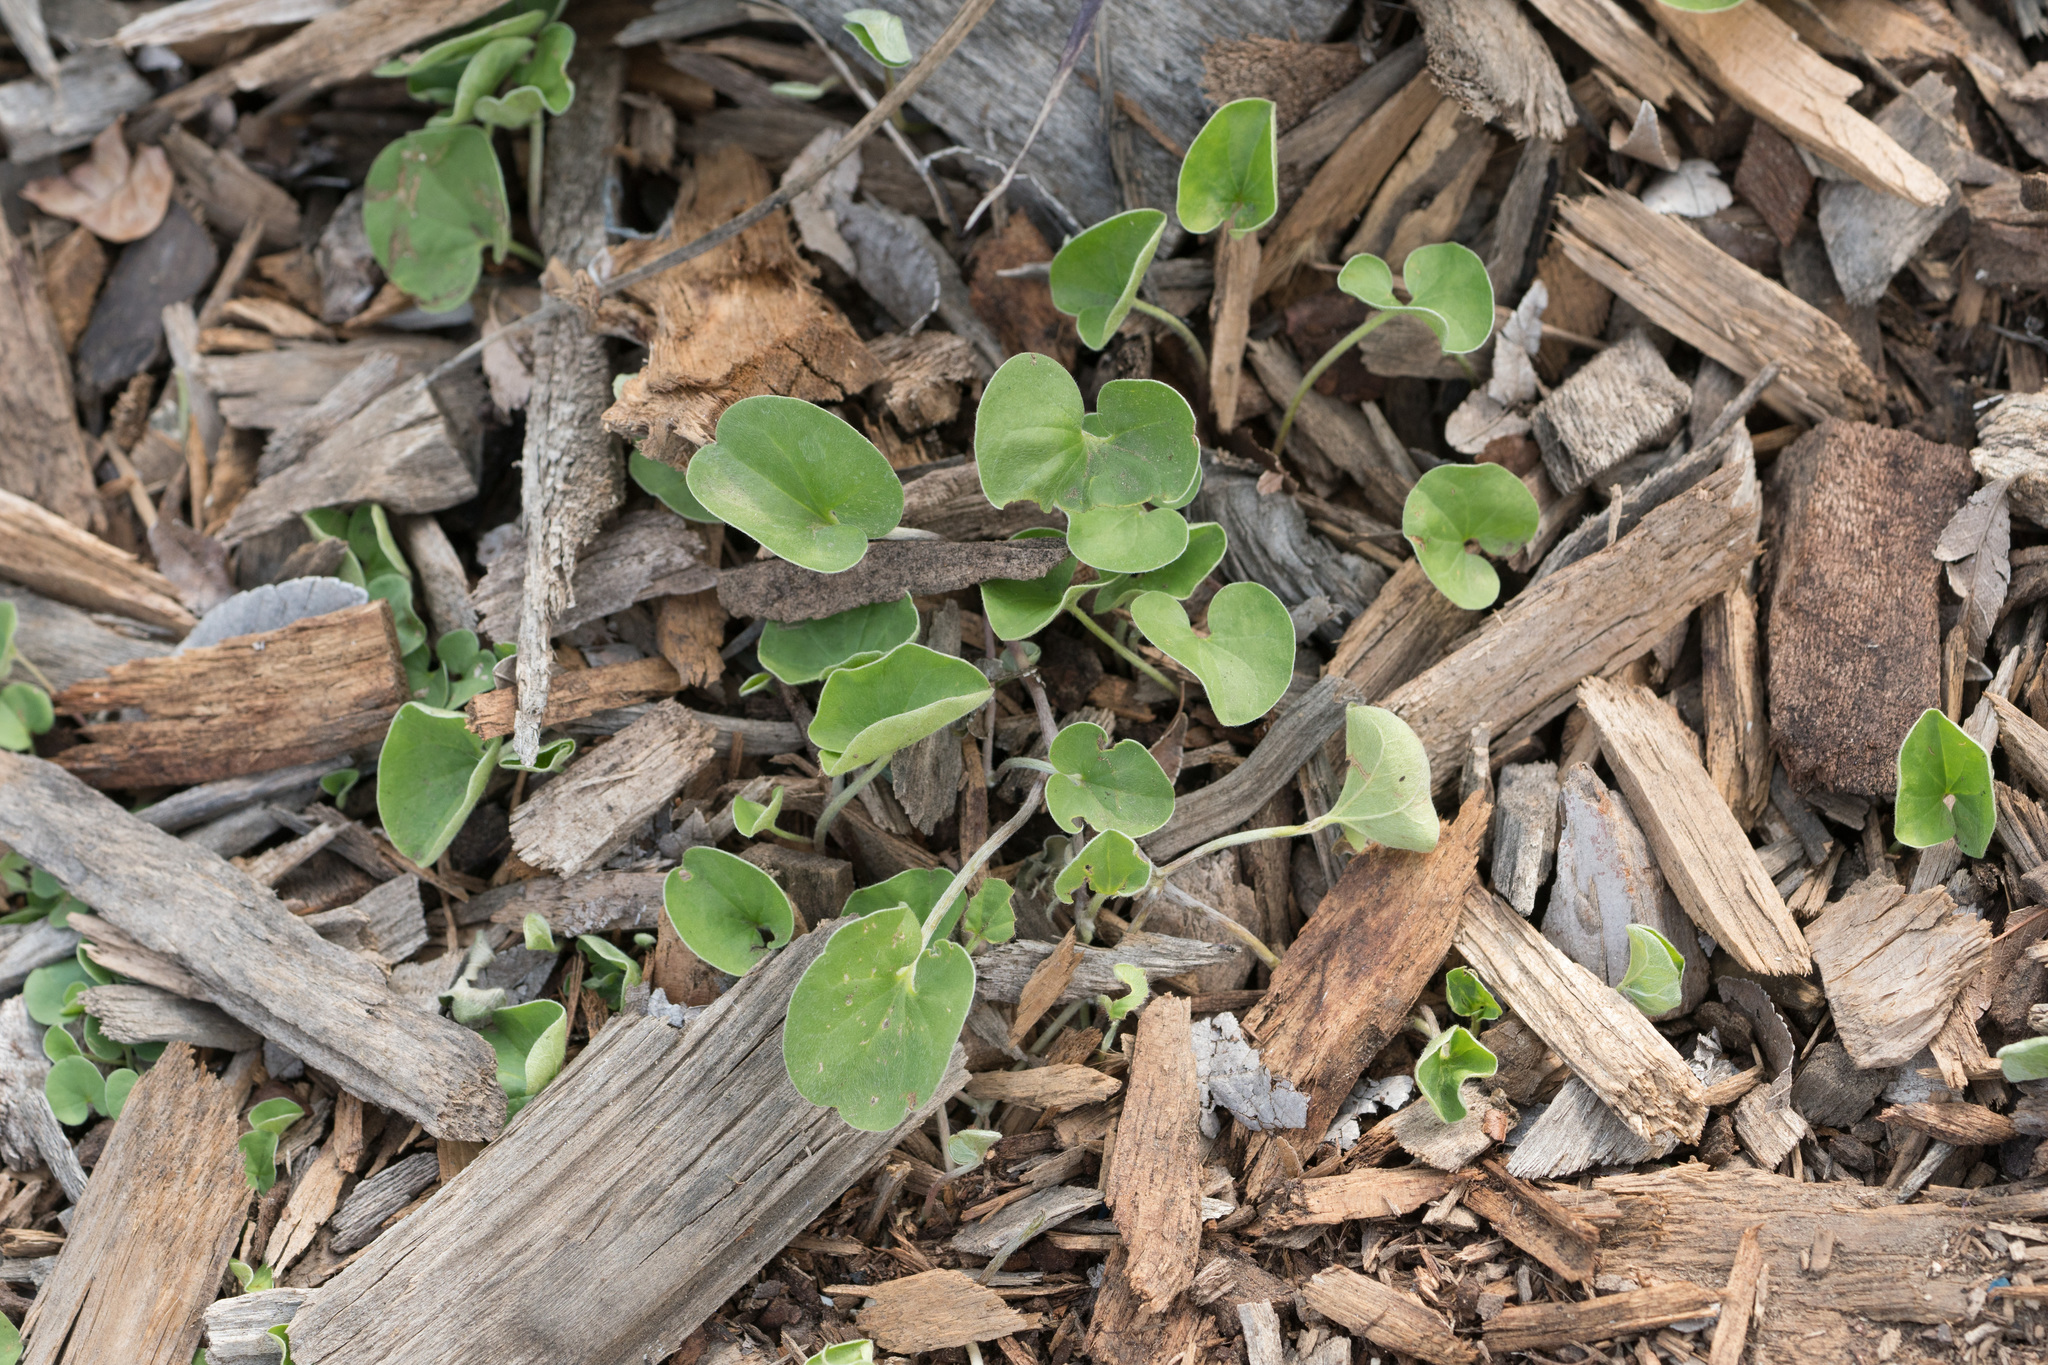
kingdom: Plantae
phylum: Tracheophyta
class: Magnoliopsida
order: Solanales
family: Convolvulaceae
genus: Dichondra
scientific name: Dichondra micrantha
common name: Kidneyweed
